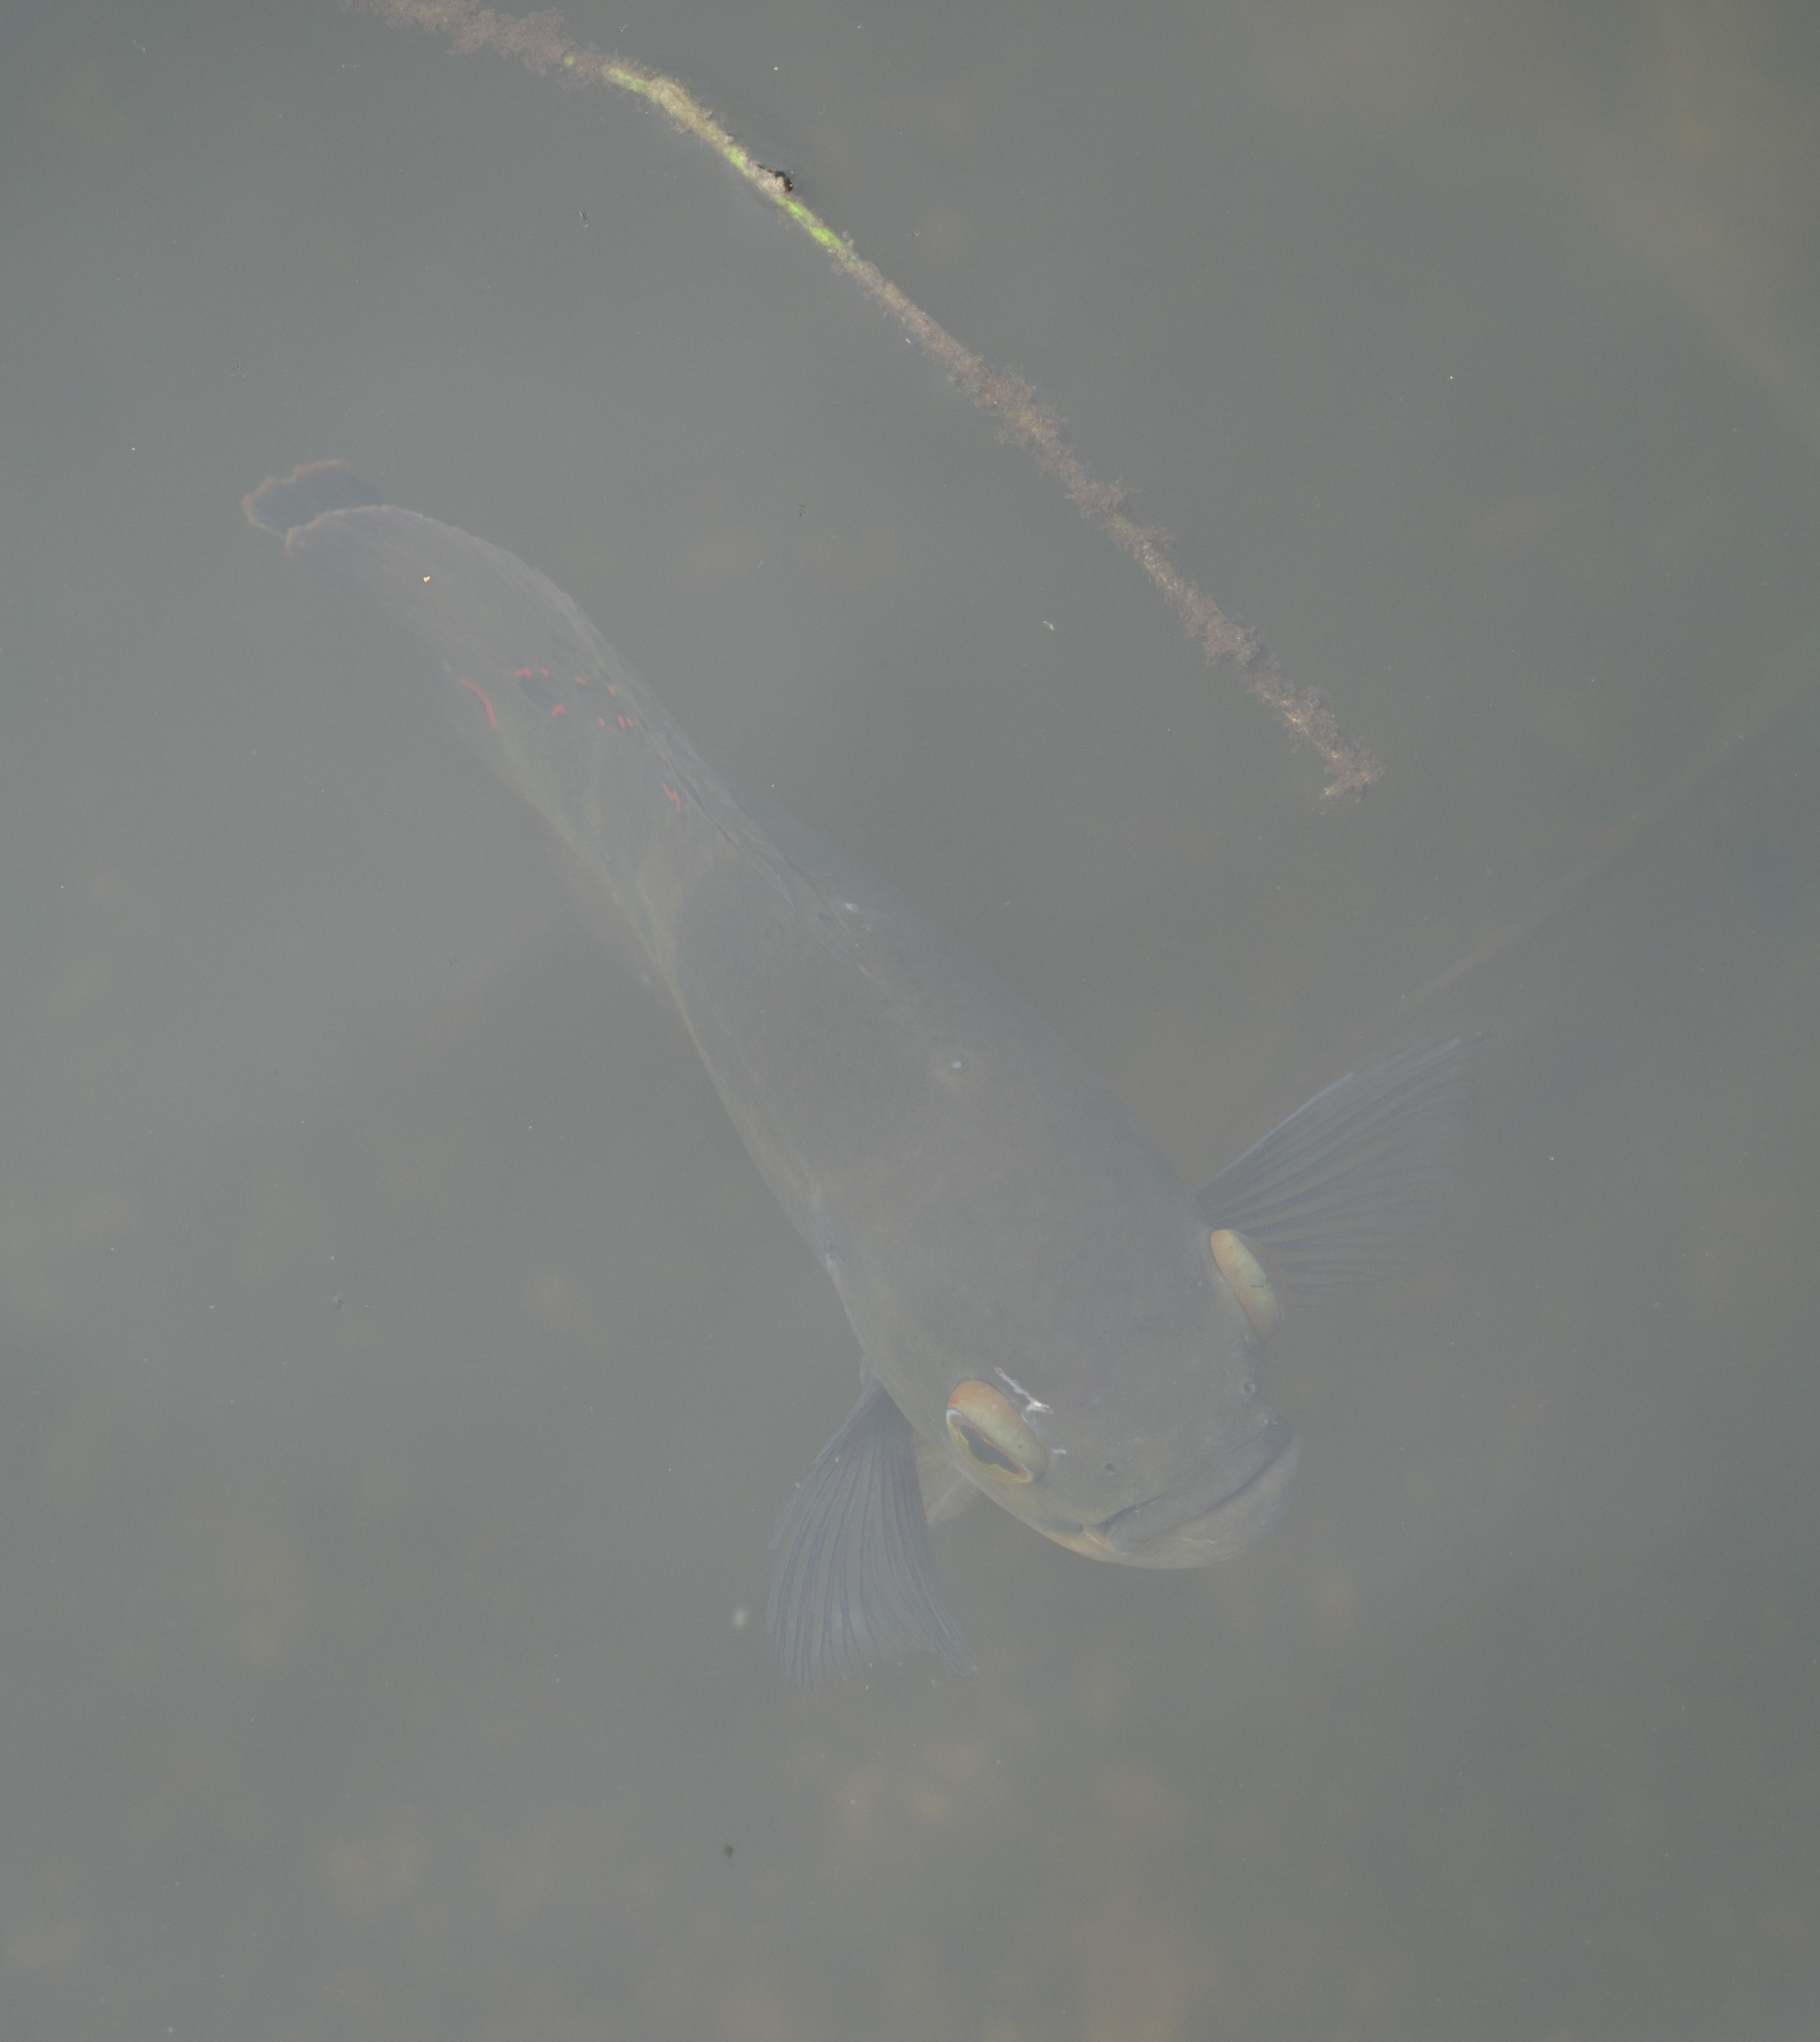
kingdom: Animalia
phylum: Chordata
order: Perciformes
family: Cichlidae
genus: Astronotus
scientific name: Astronotus ocellatus
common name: Oscar
